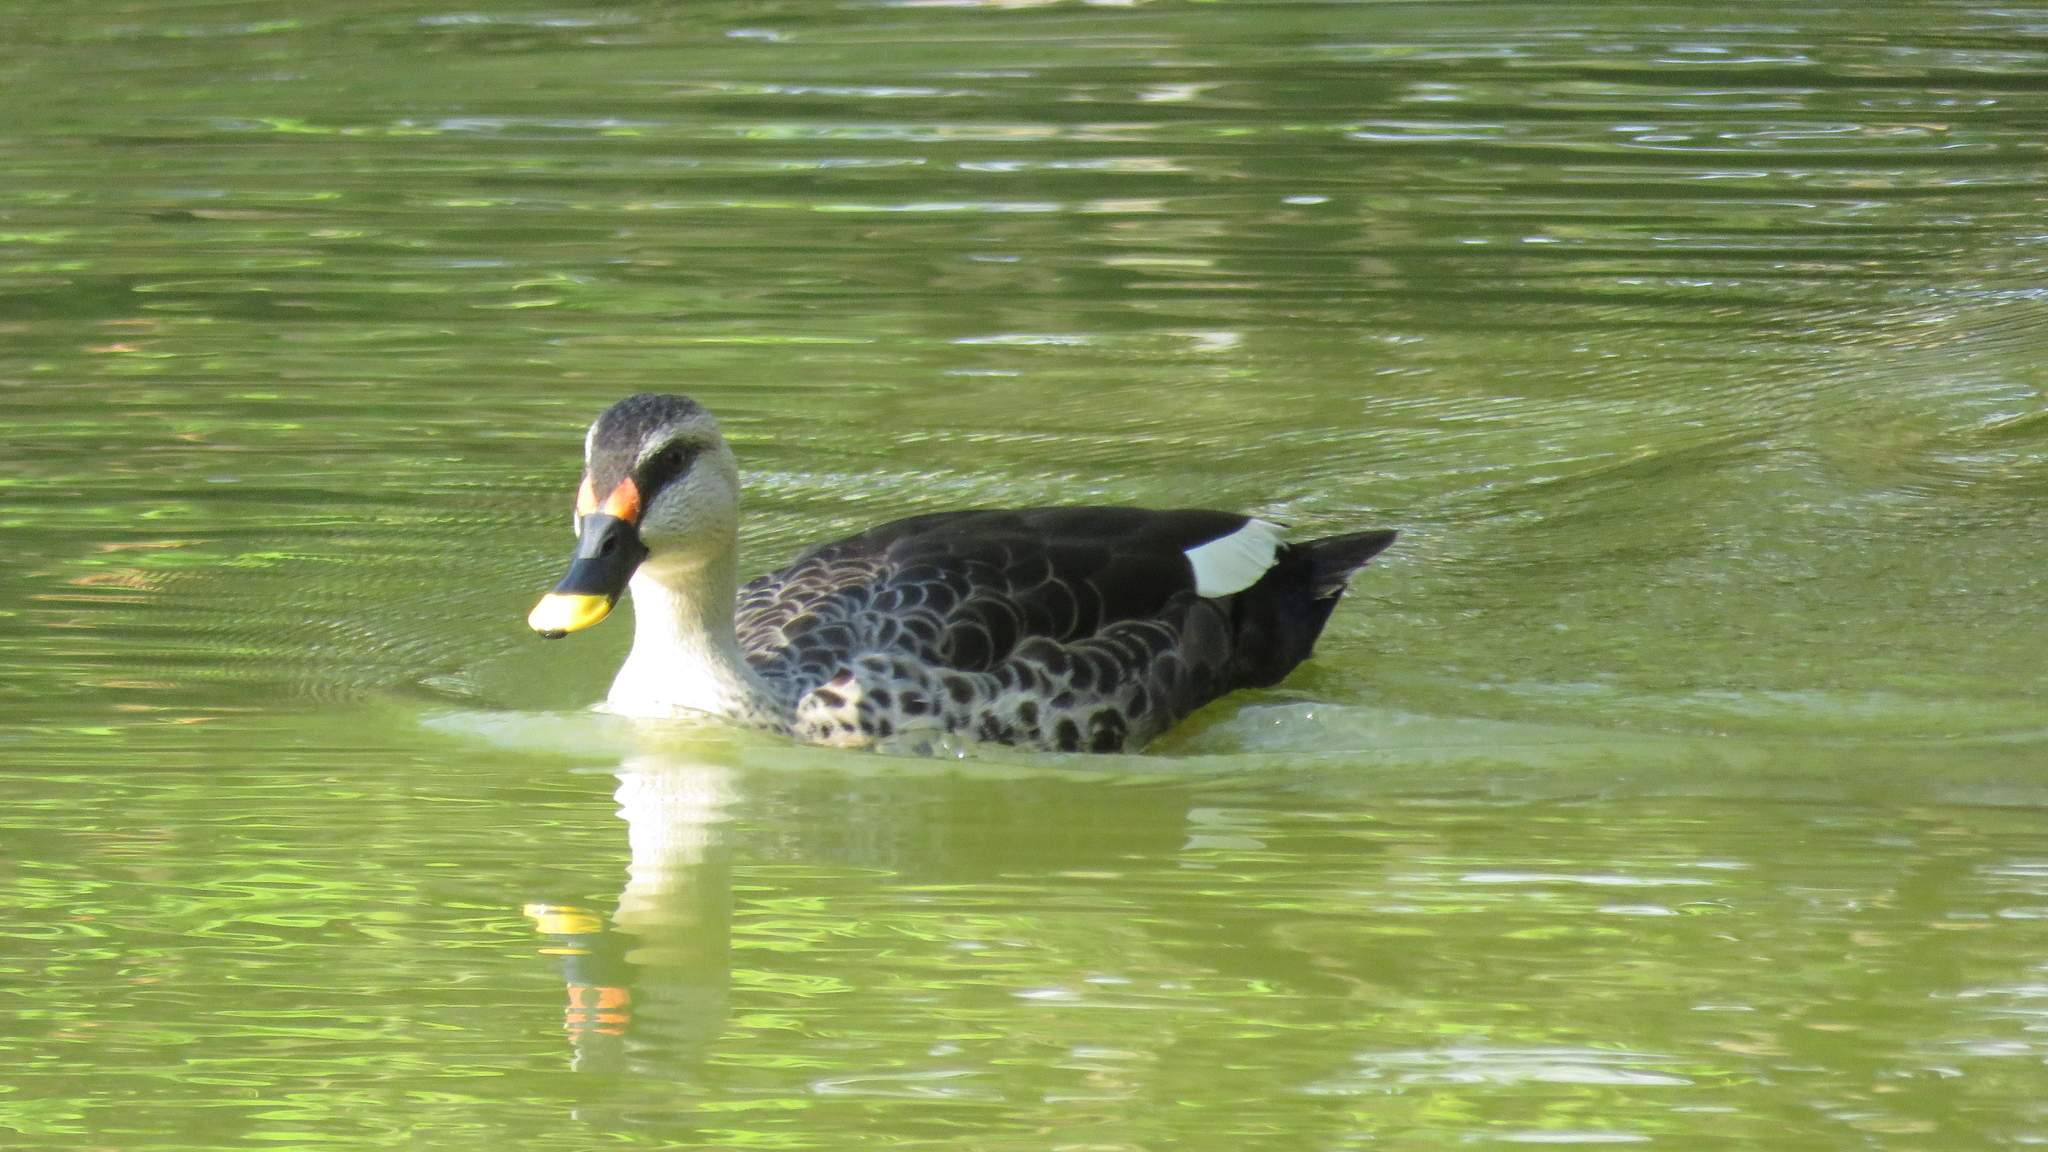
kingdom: Animalia
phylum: Chordata
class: Aves
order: Anseriformes
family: Anatidae
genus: Anas
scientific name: Anas poecilorhyncha
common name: Indian spot-billed duck
